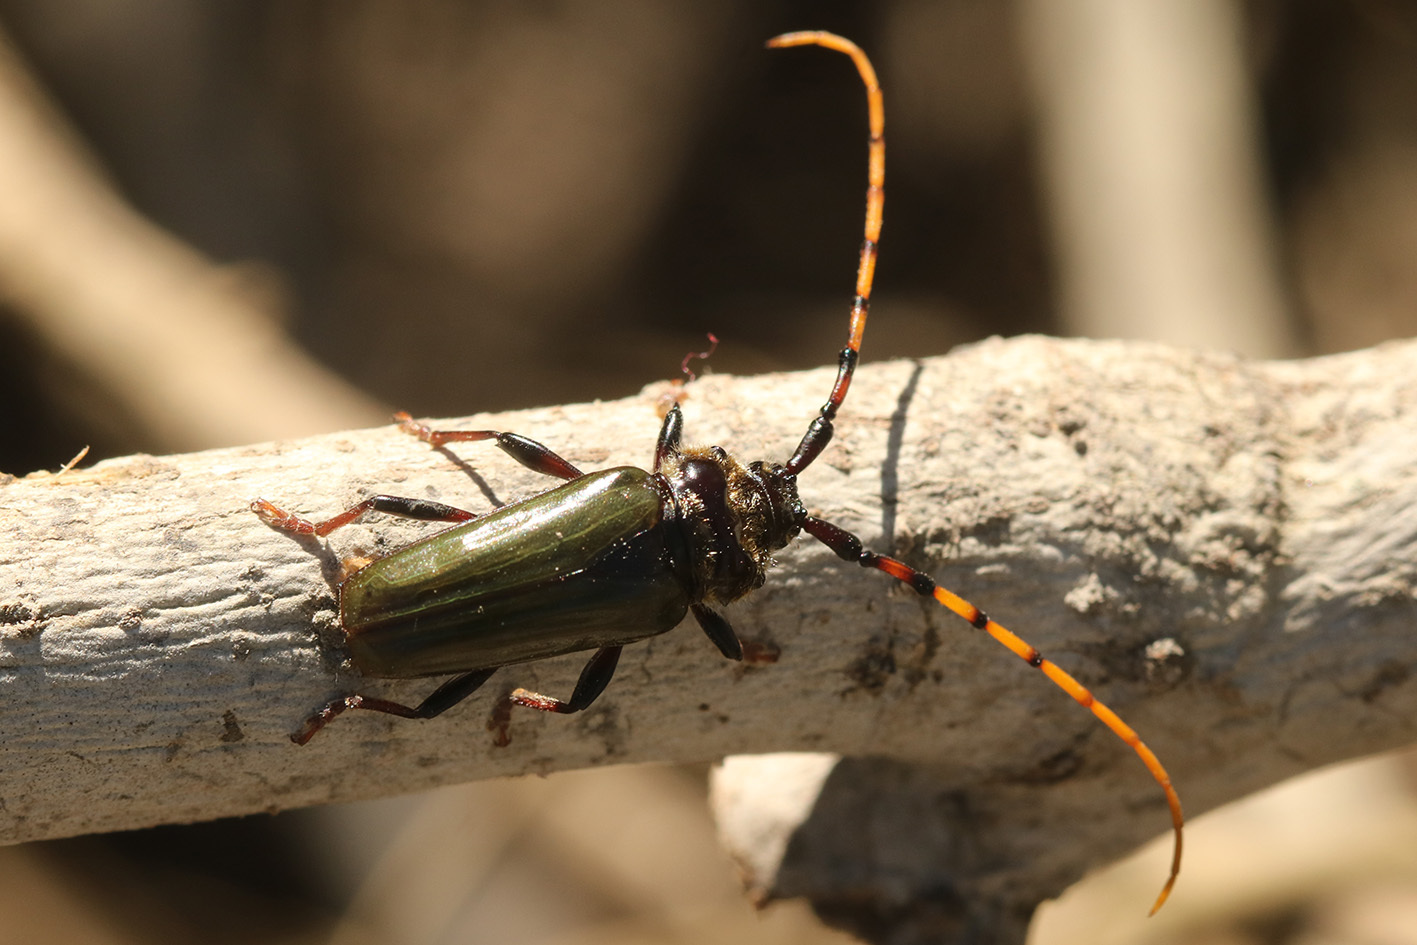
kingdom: Animalia
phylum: Arthropoda
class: Insecta
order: Coleoptera
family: Cerambycidae
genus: Retrachydes
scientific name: Retrachydes thoracicus
